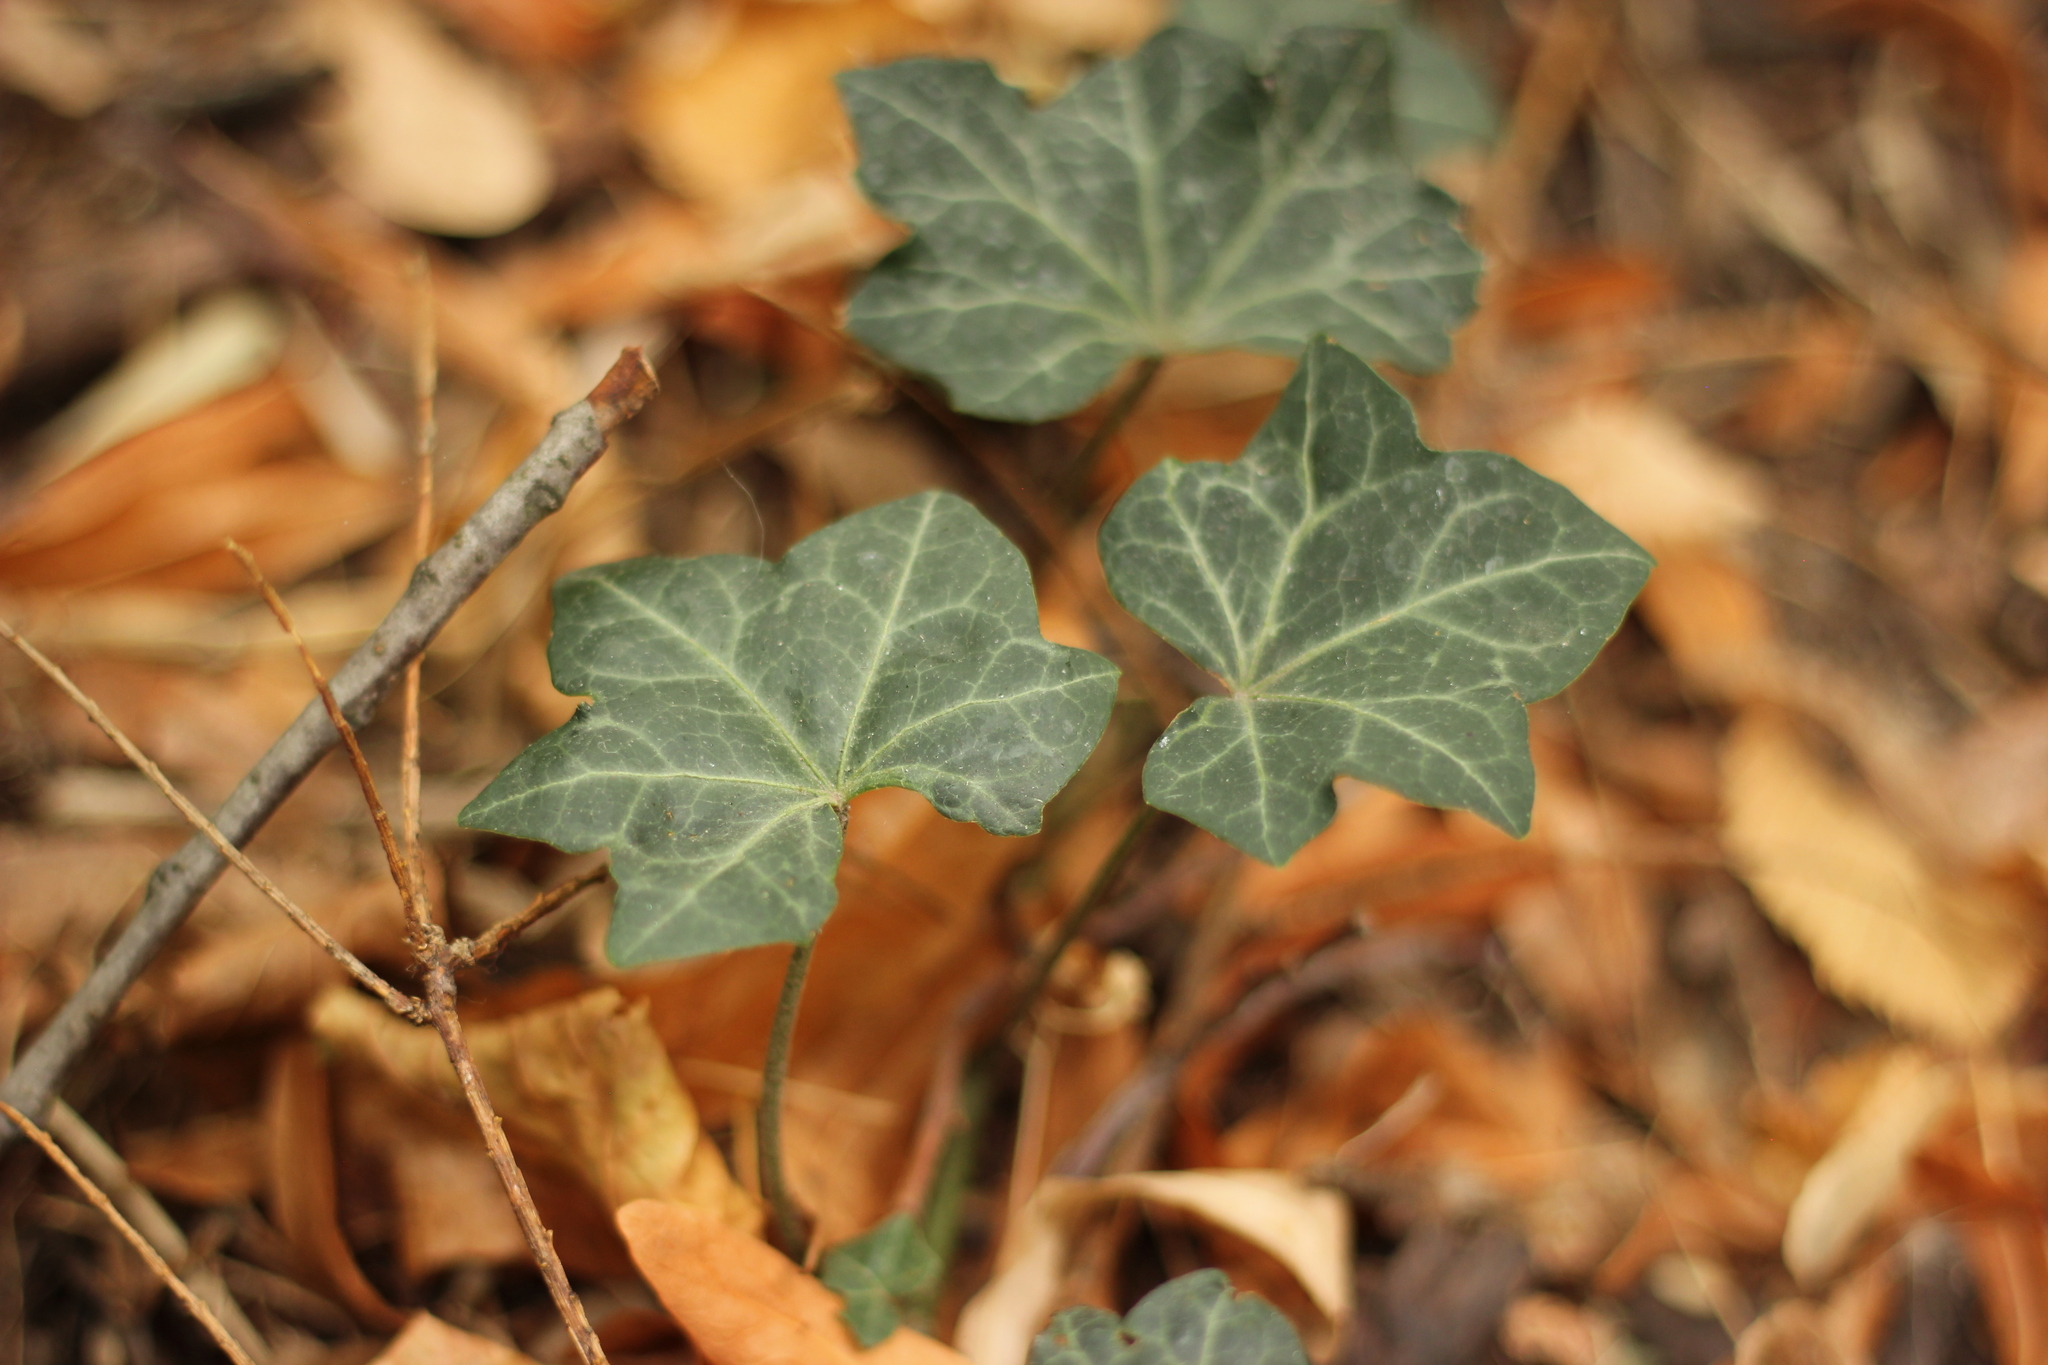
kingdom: Plantae
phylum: Tracheophyta
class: Magnoliopsida
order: Apiales
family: Araliaceae
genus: Hedera
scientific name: Hedera helix
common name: Ivy
